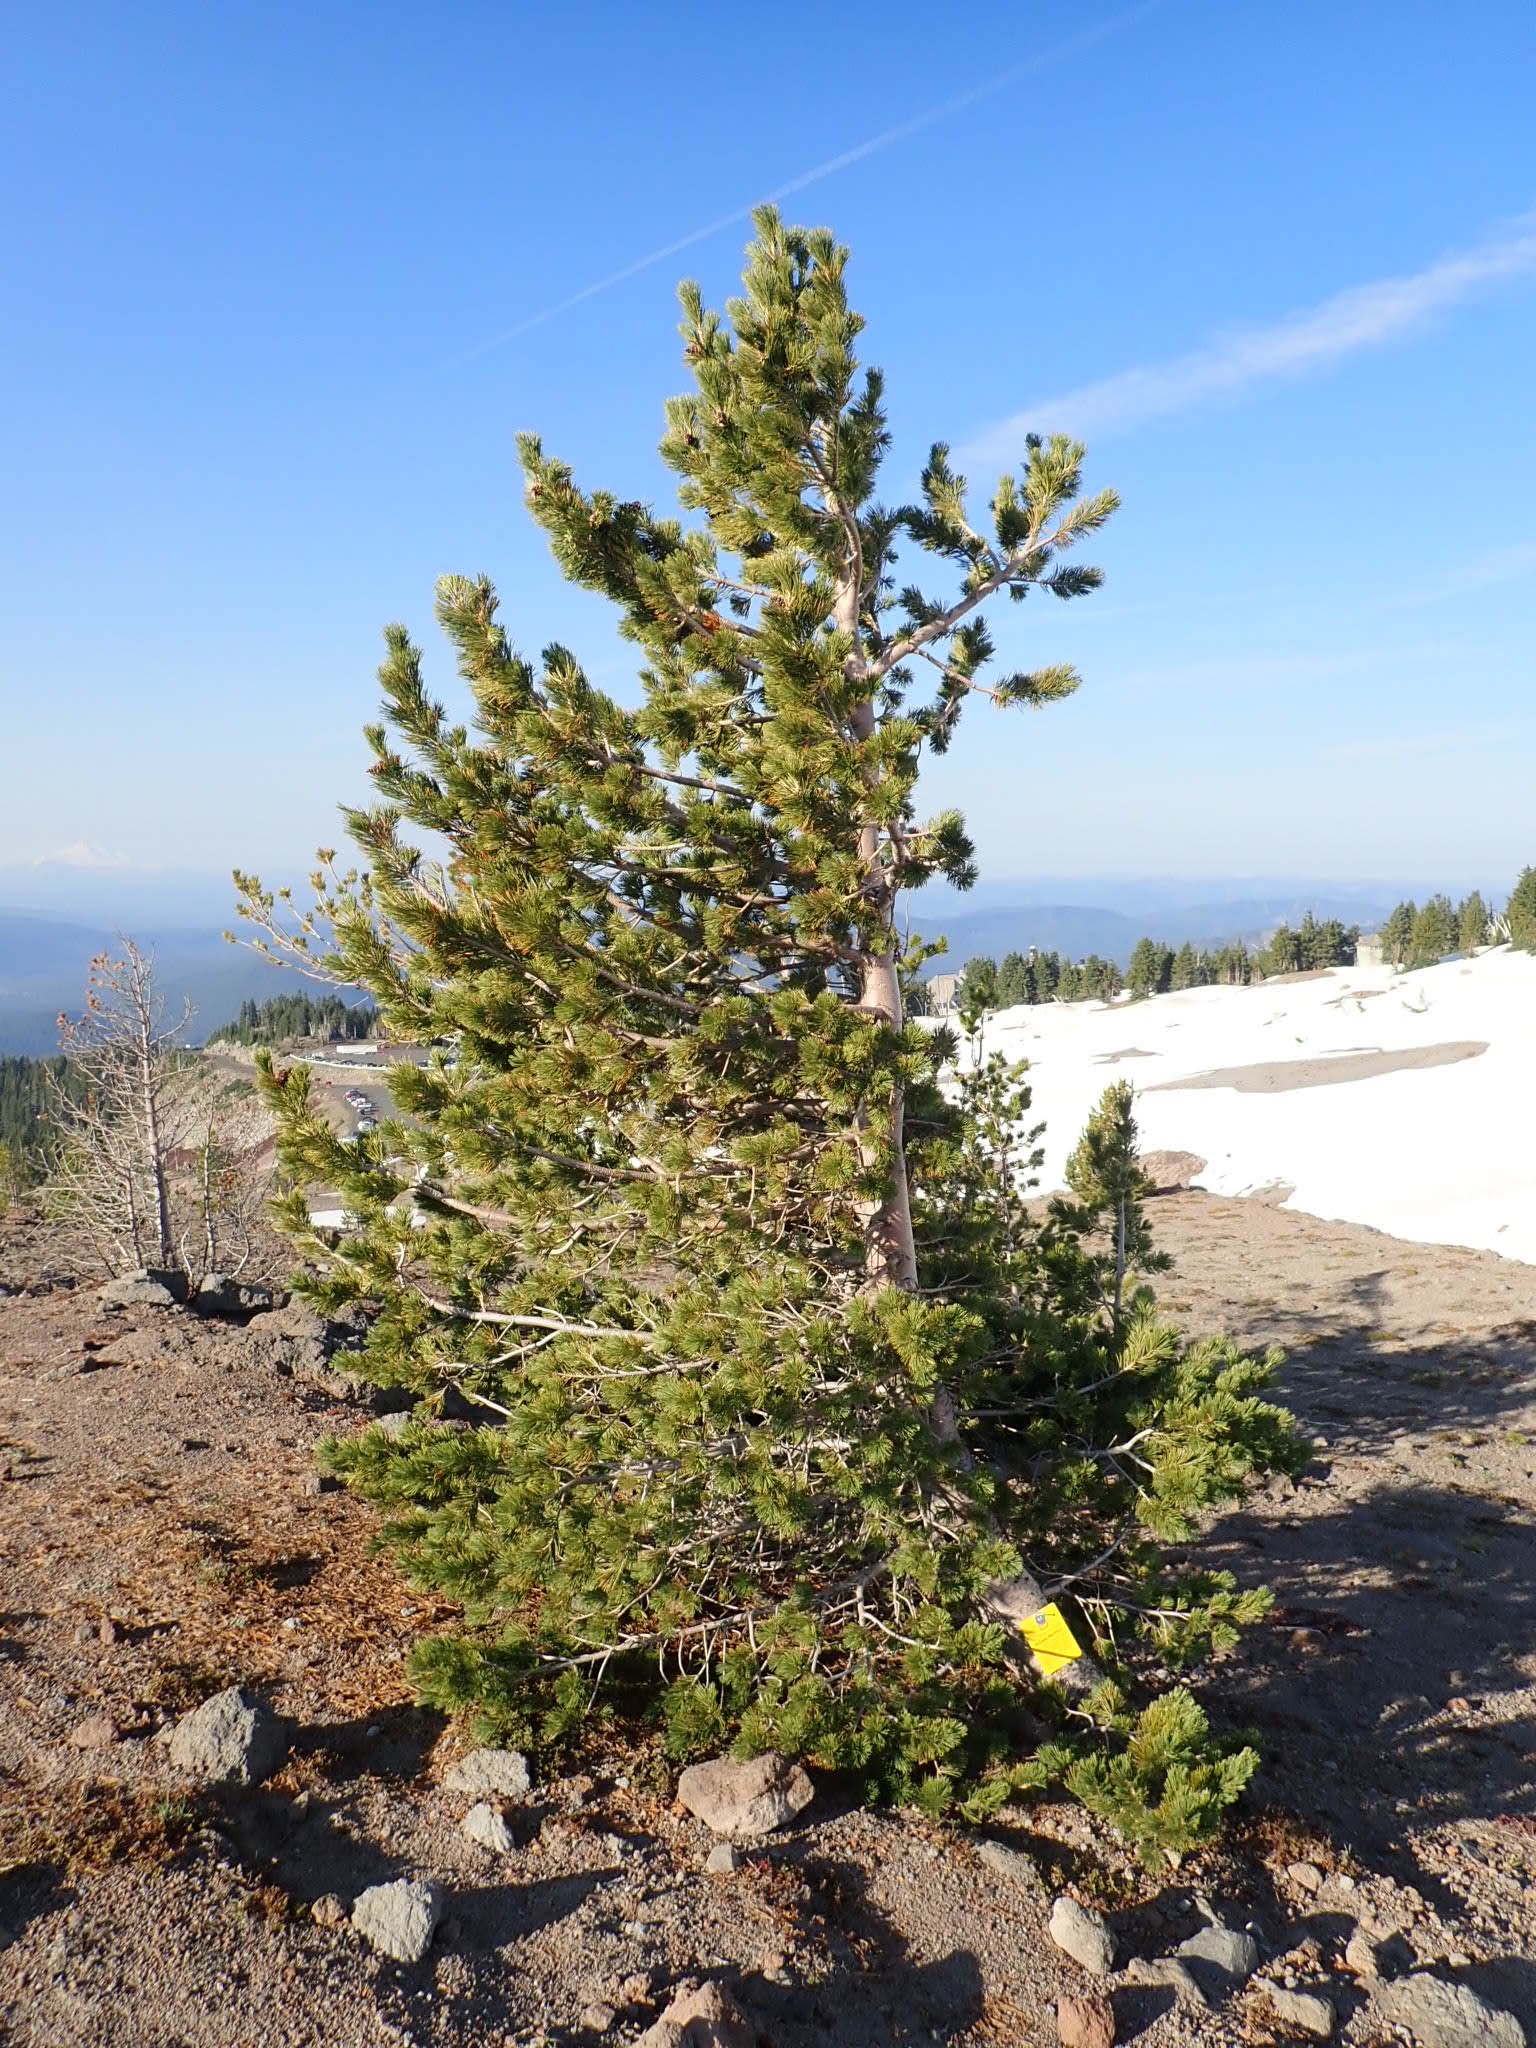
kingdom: Plantae
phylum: Tracheophyta
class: Pinopsida
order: Pinales
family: Pinaceae
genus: Pinus
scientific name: Pinus albicaulis
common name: Whitebark pine
